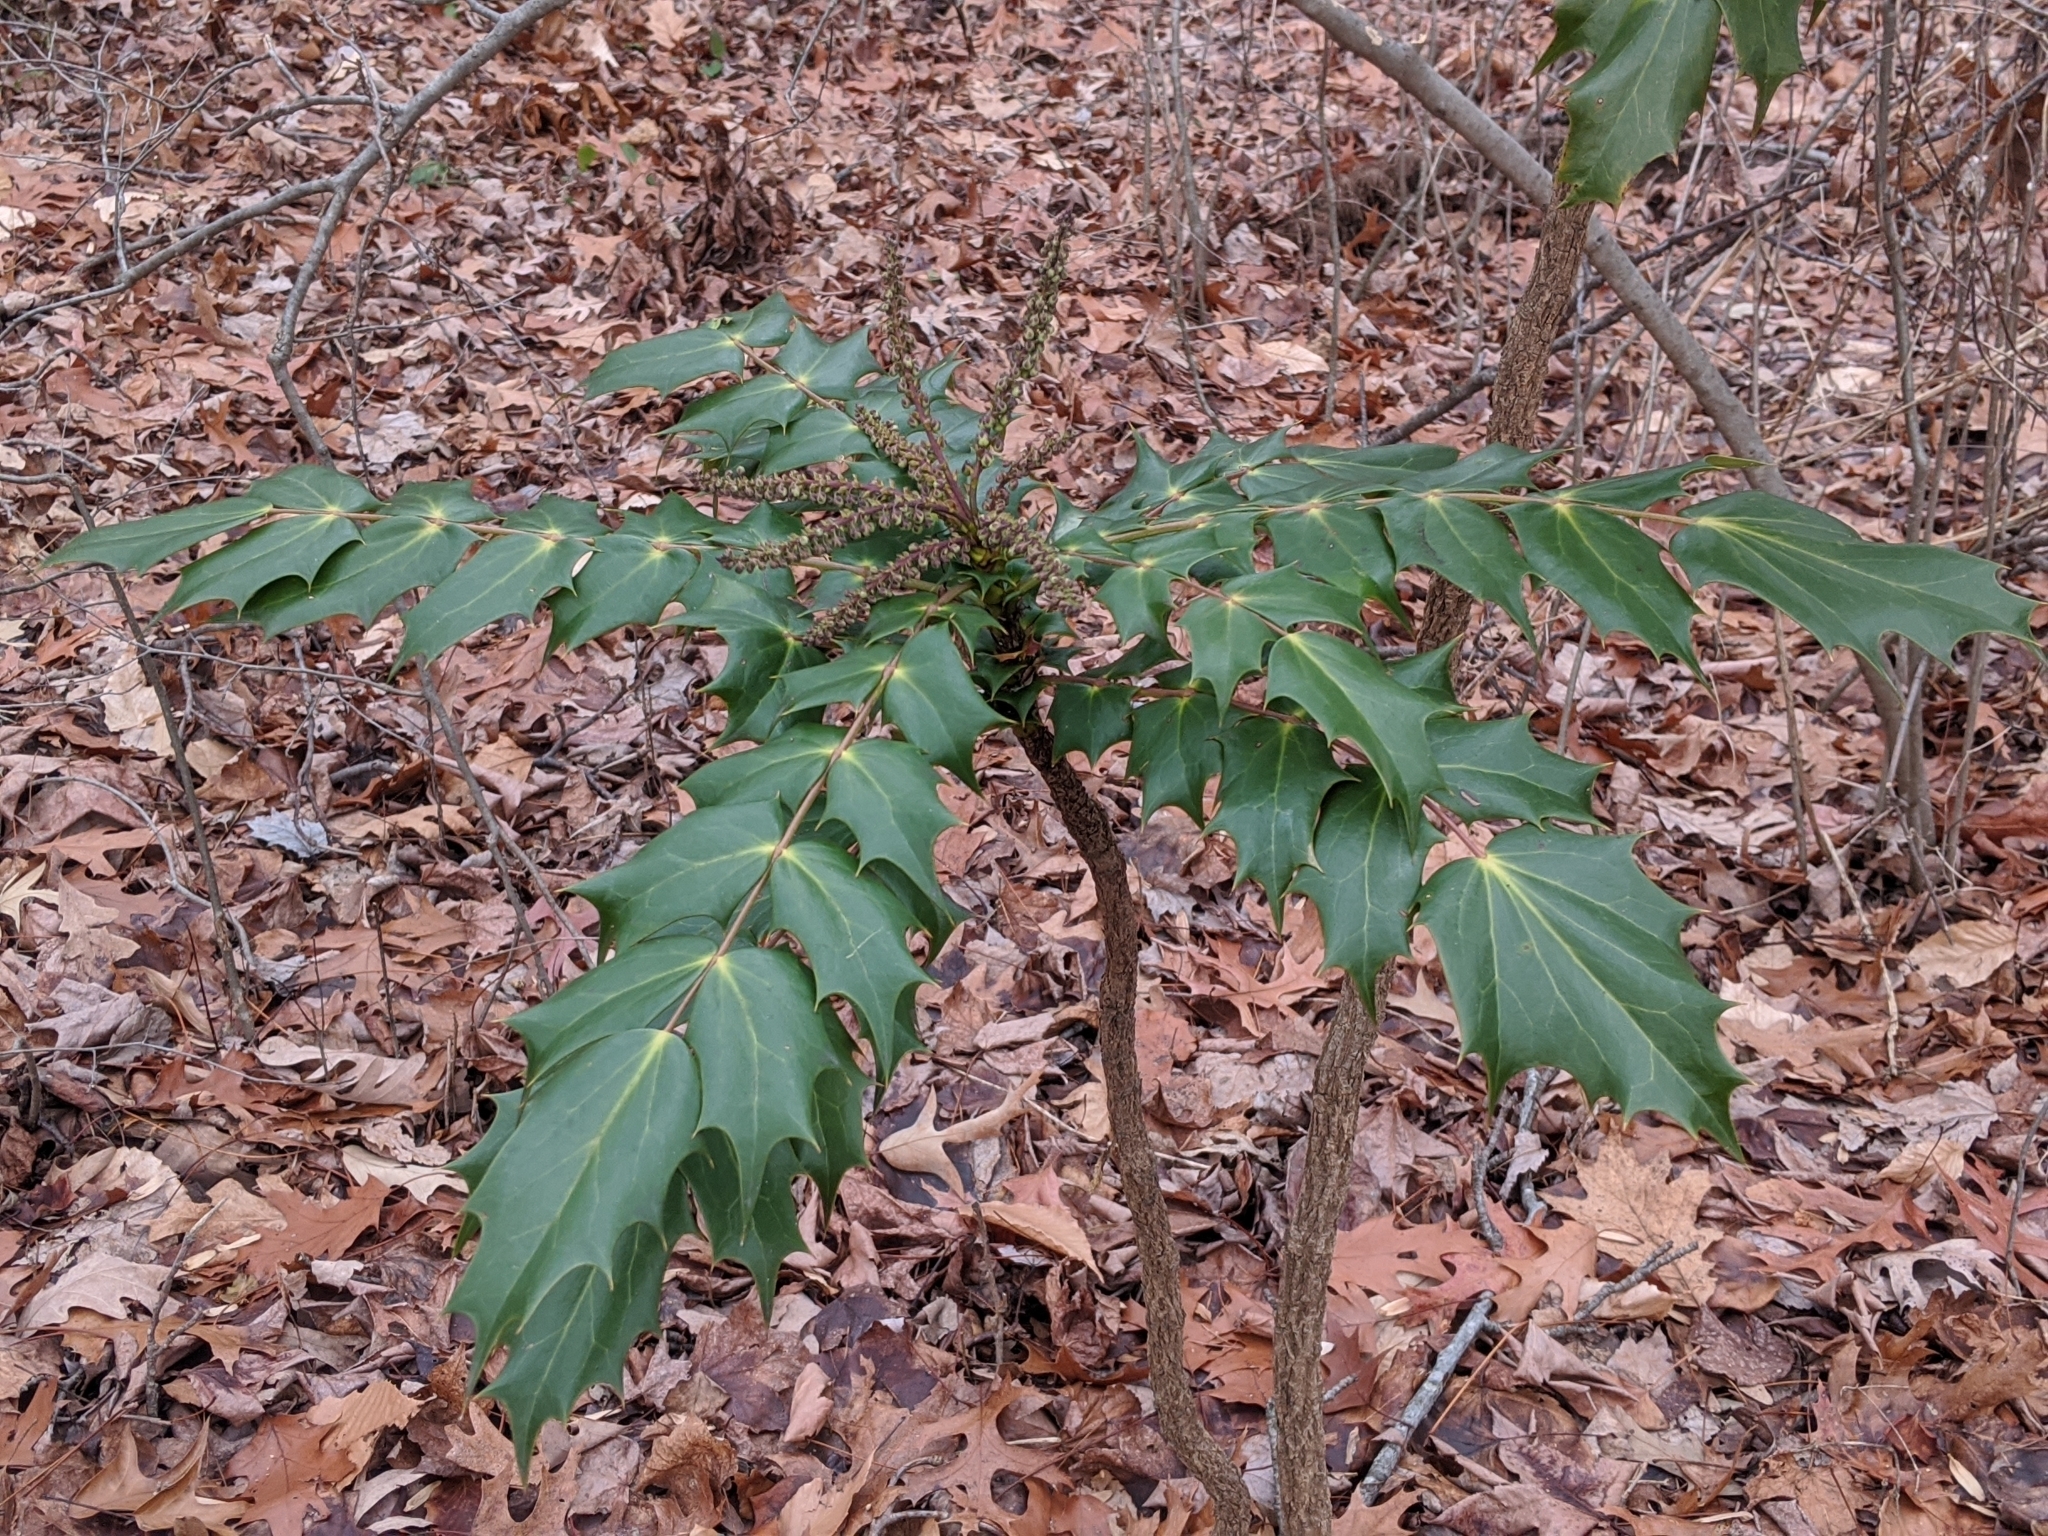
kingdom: Plantae
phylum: Tracheophyta
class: Magnoliopsida
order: Ranunculales
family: Berberidaceae
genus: Mahonia
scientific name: Mahonia bealei
